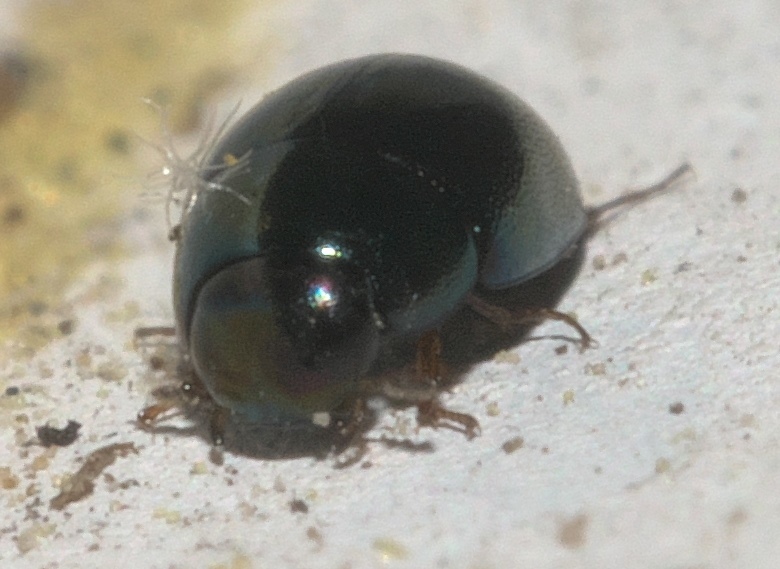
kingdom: Animalia
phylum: Arthropoda
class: Insecta
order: Coleoptera
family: Hydrophilidae
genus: Paracymus
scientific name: Paracymus
